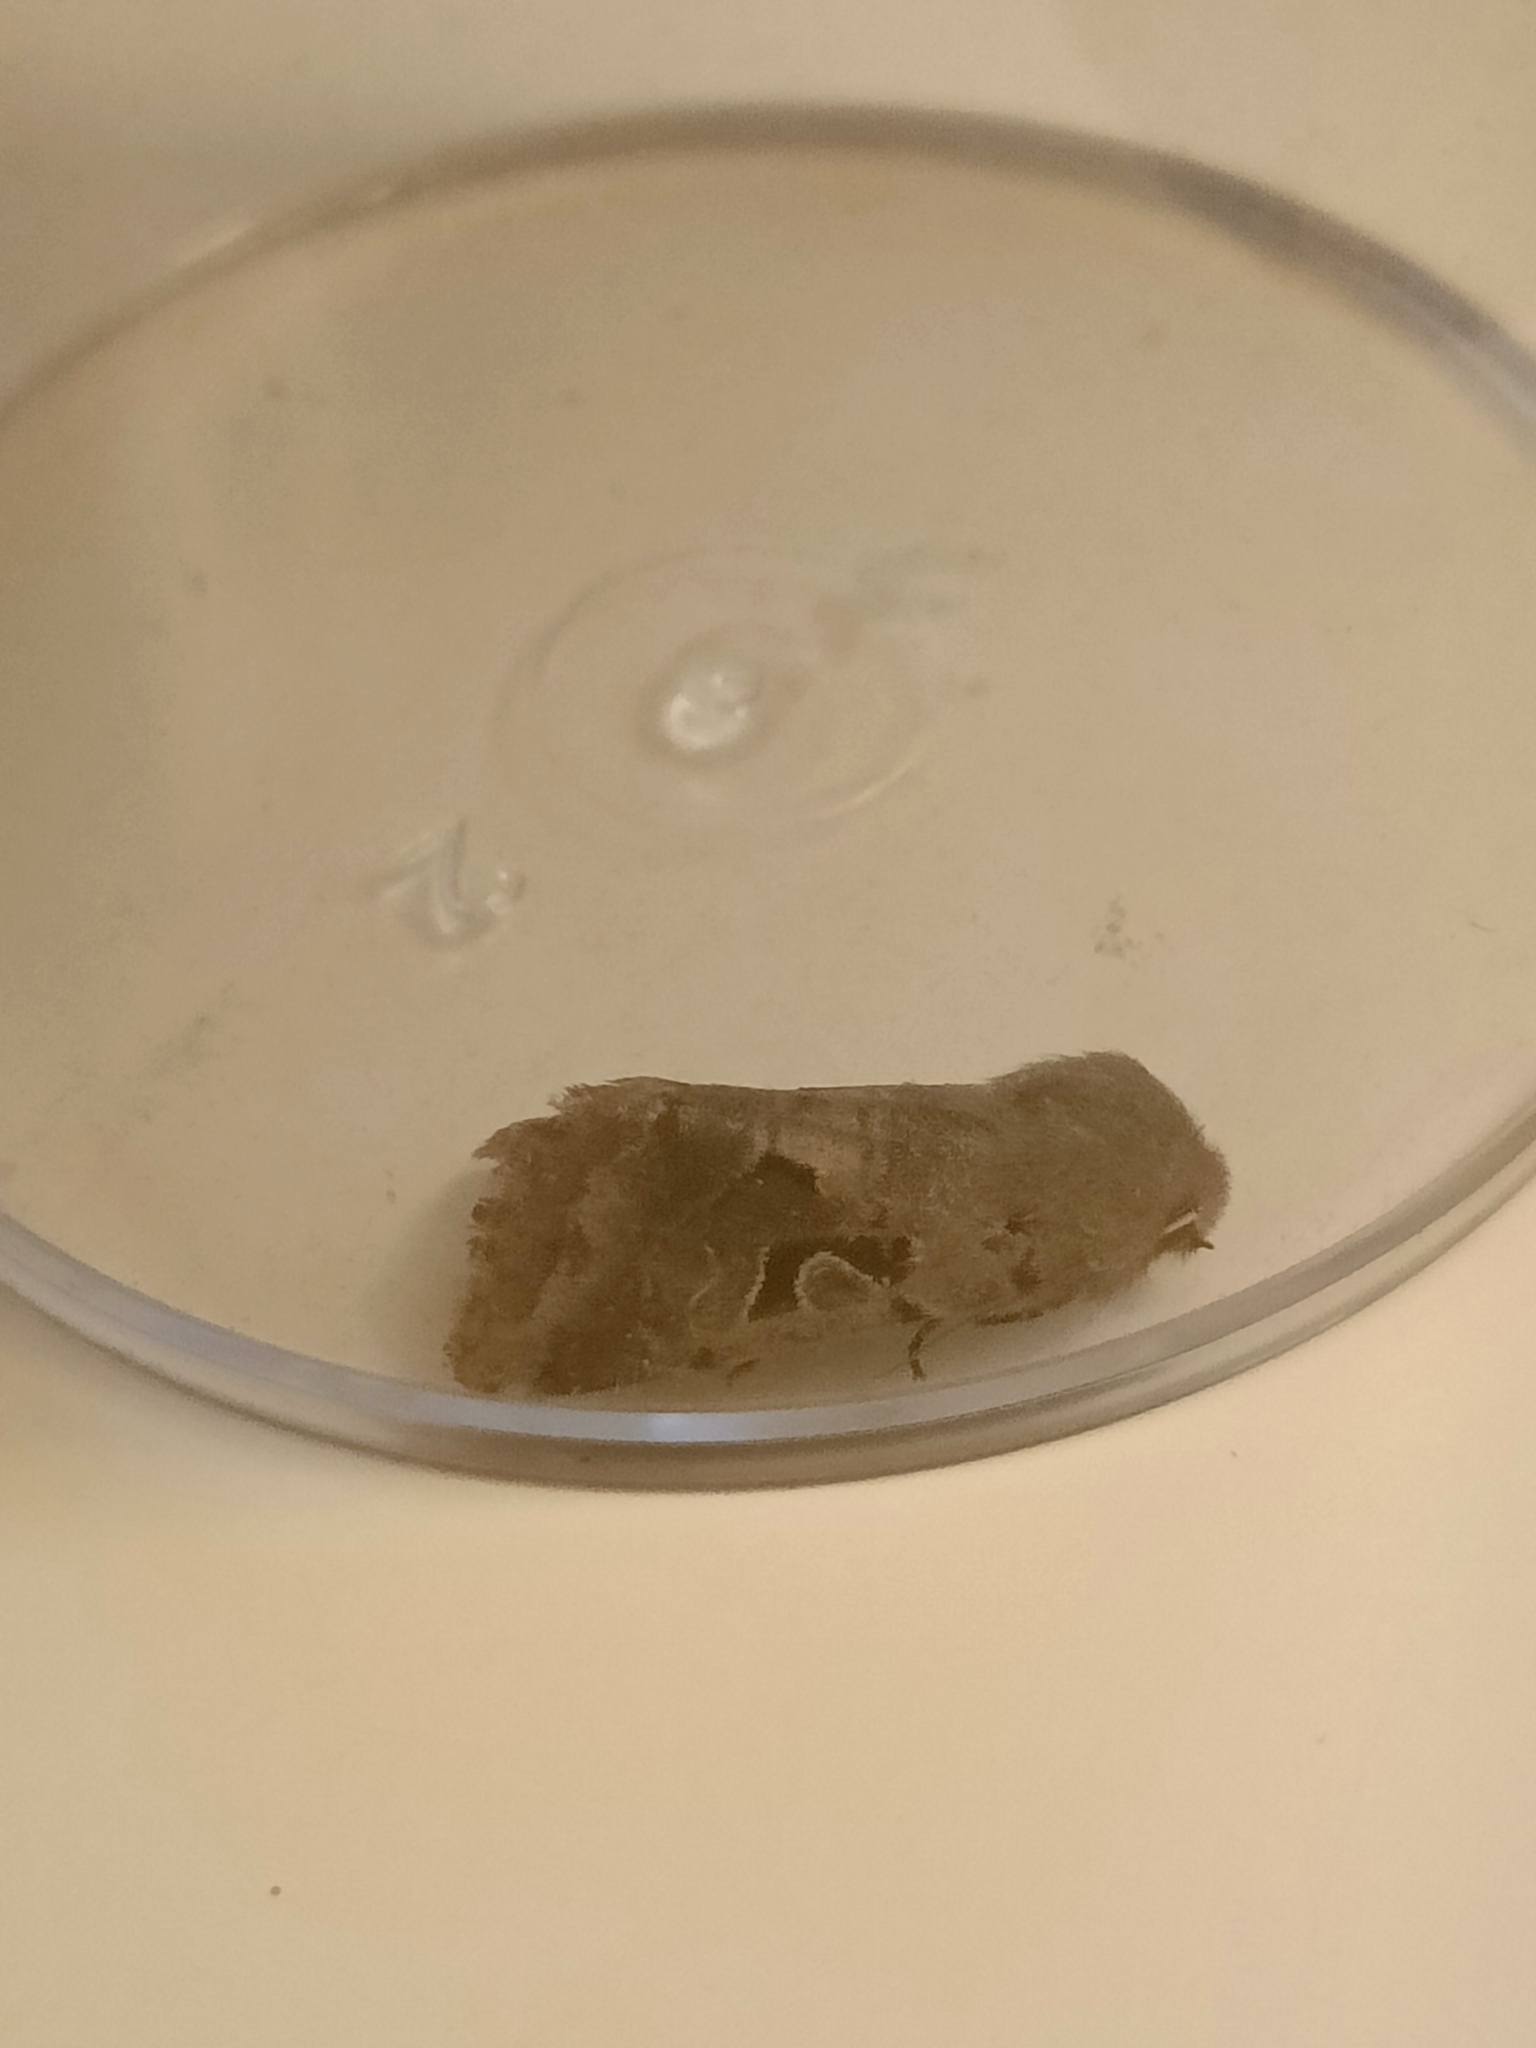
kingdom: Animalia
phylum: Arthropoda
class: Insecta
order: Lepidoptera
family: Noctuidae
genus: Orthosia
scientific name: Orthosia gothica
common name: Hebrew character
